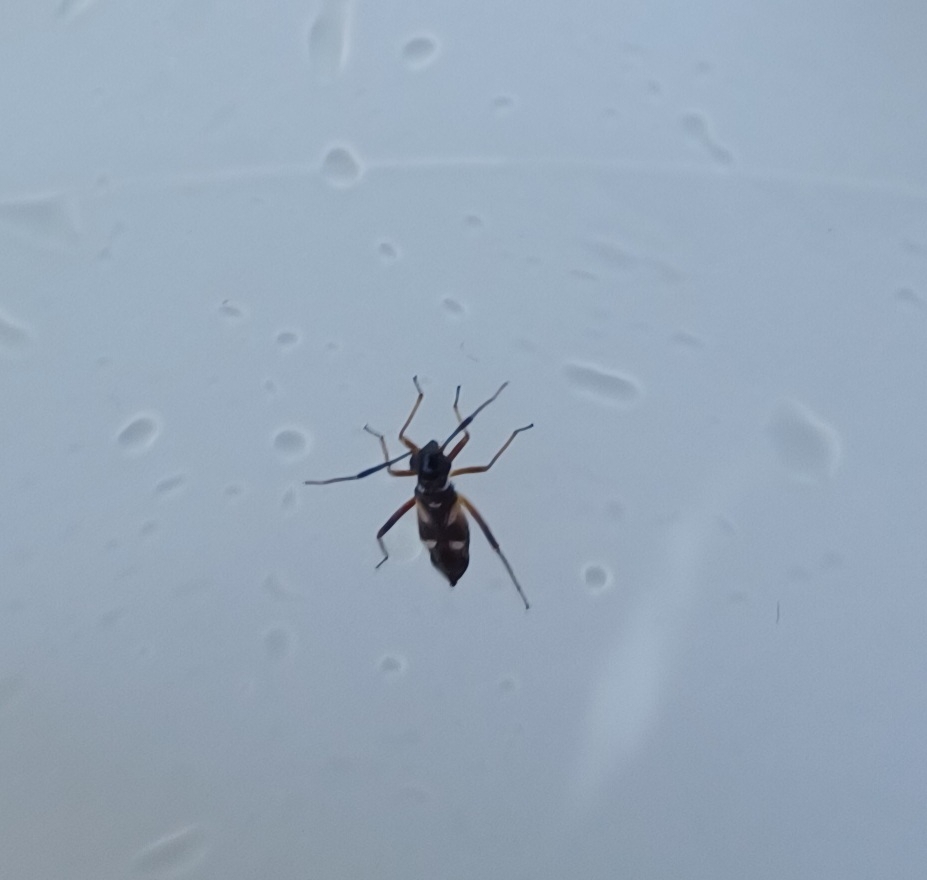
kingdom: Animalia
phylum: Arthropoda
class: Insecta
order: Hemiptera
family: Miridae
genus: Globiceps
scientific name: Globiceps flavomaculatus
